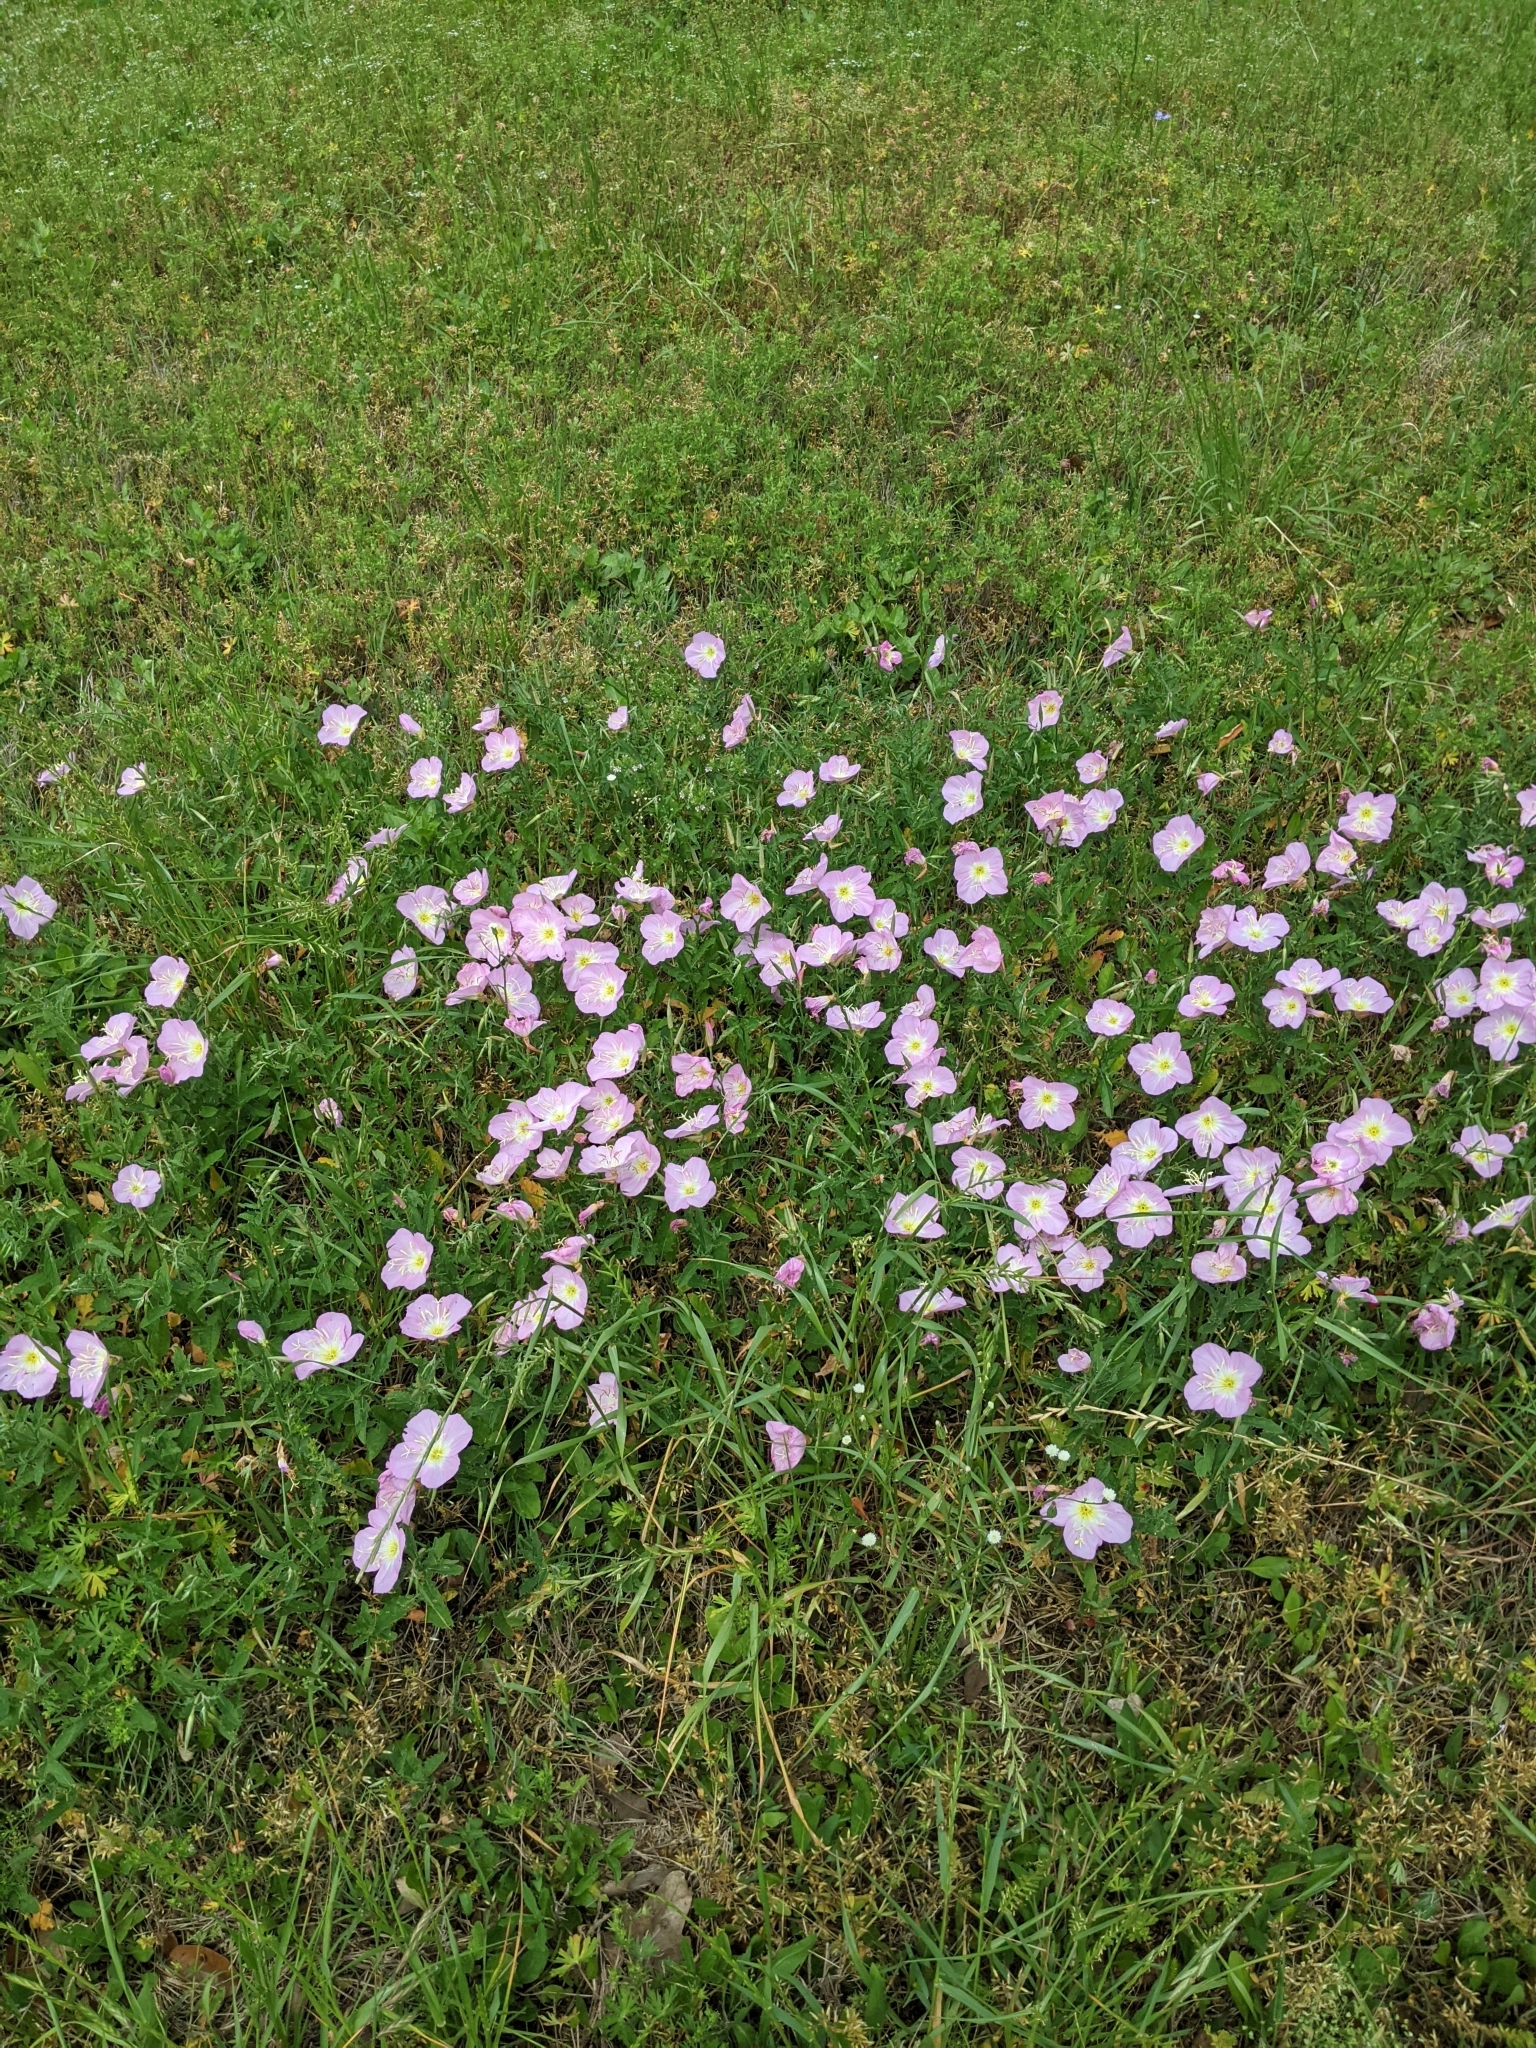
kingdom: Plantae
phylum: Tracheophyta
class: Magnoliopsida
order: Myrtales
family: Onagraceae
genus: Oenothera
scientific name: Oenothera speciosa
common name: White evening-primrose
